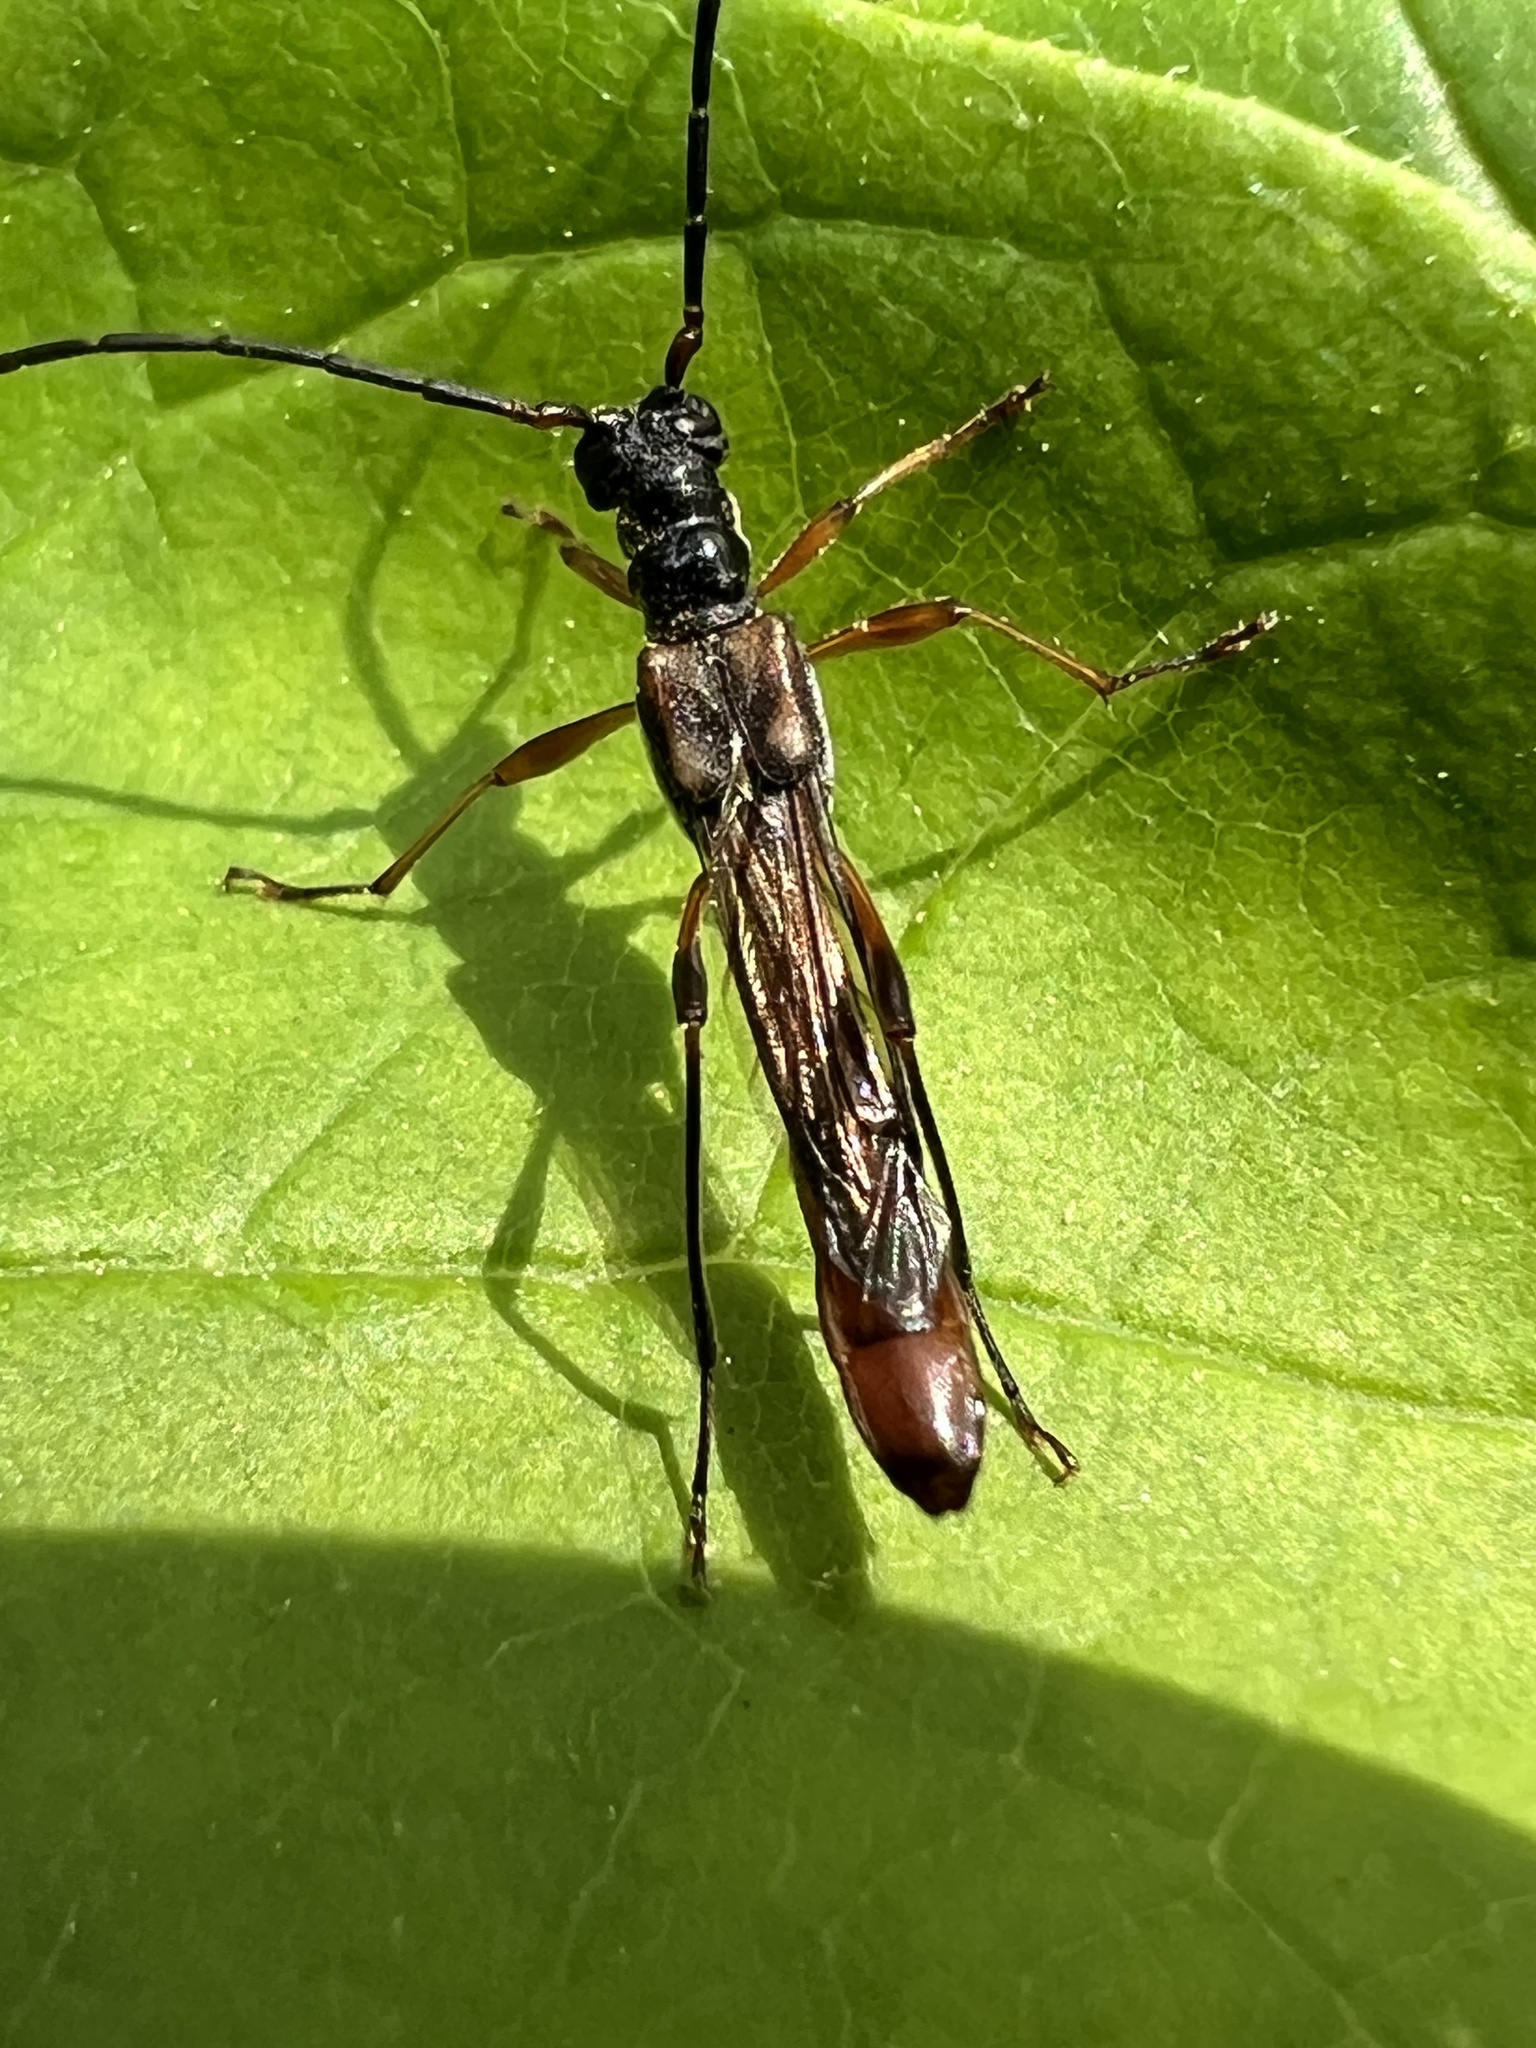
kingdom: Animalia
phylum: Arthropoda
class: Insecta
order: Coleoptera
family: Cerambycidae
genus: Necydalis
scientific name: Necydalis mellita
